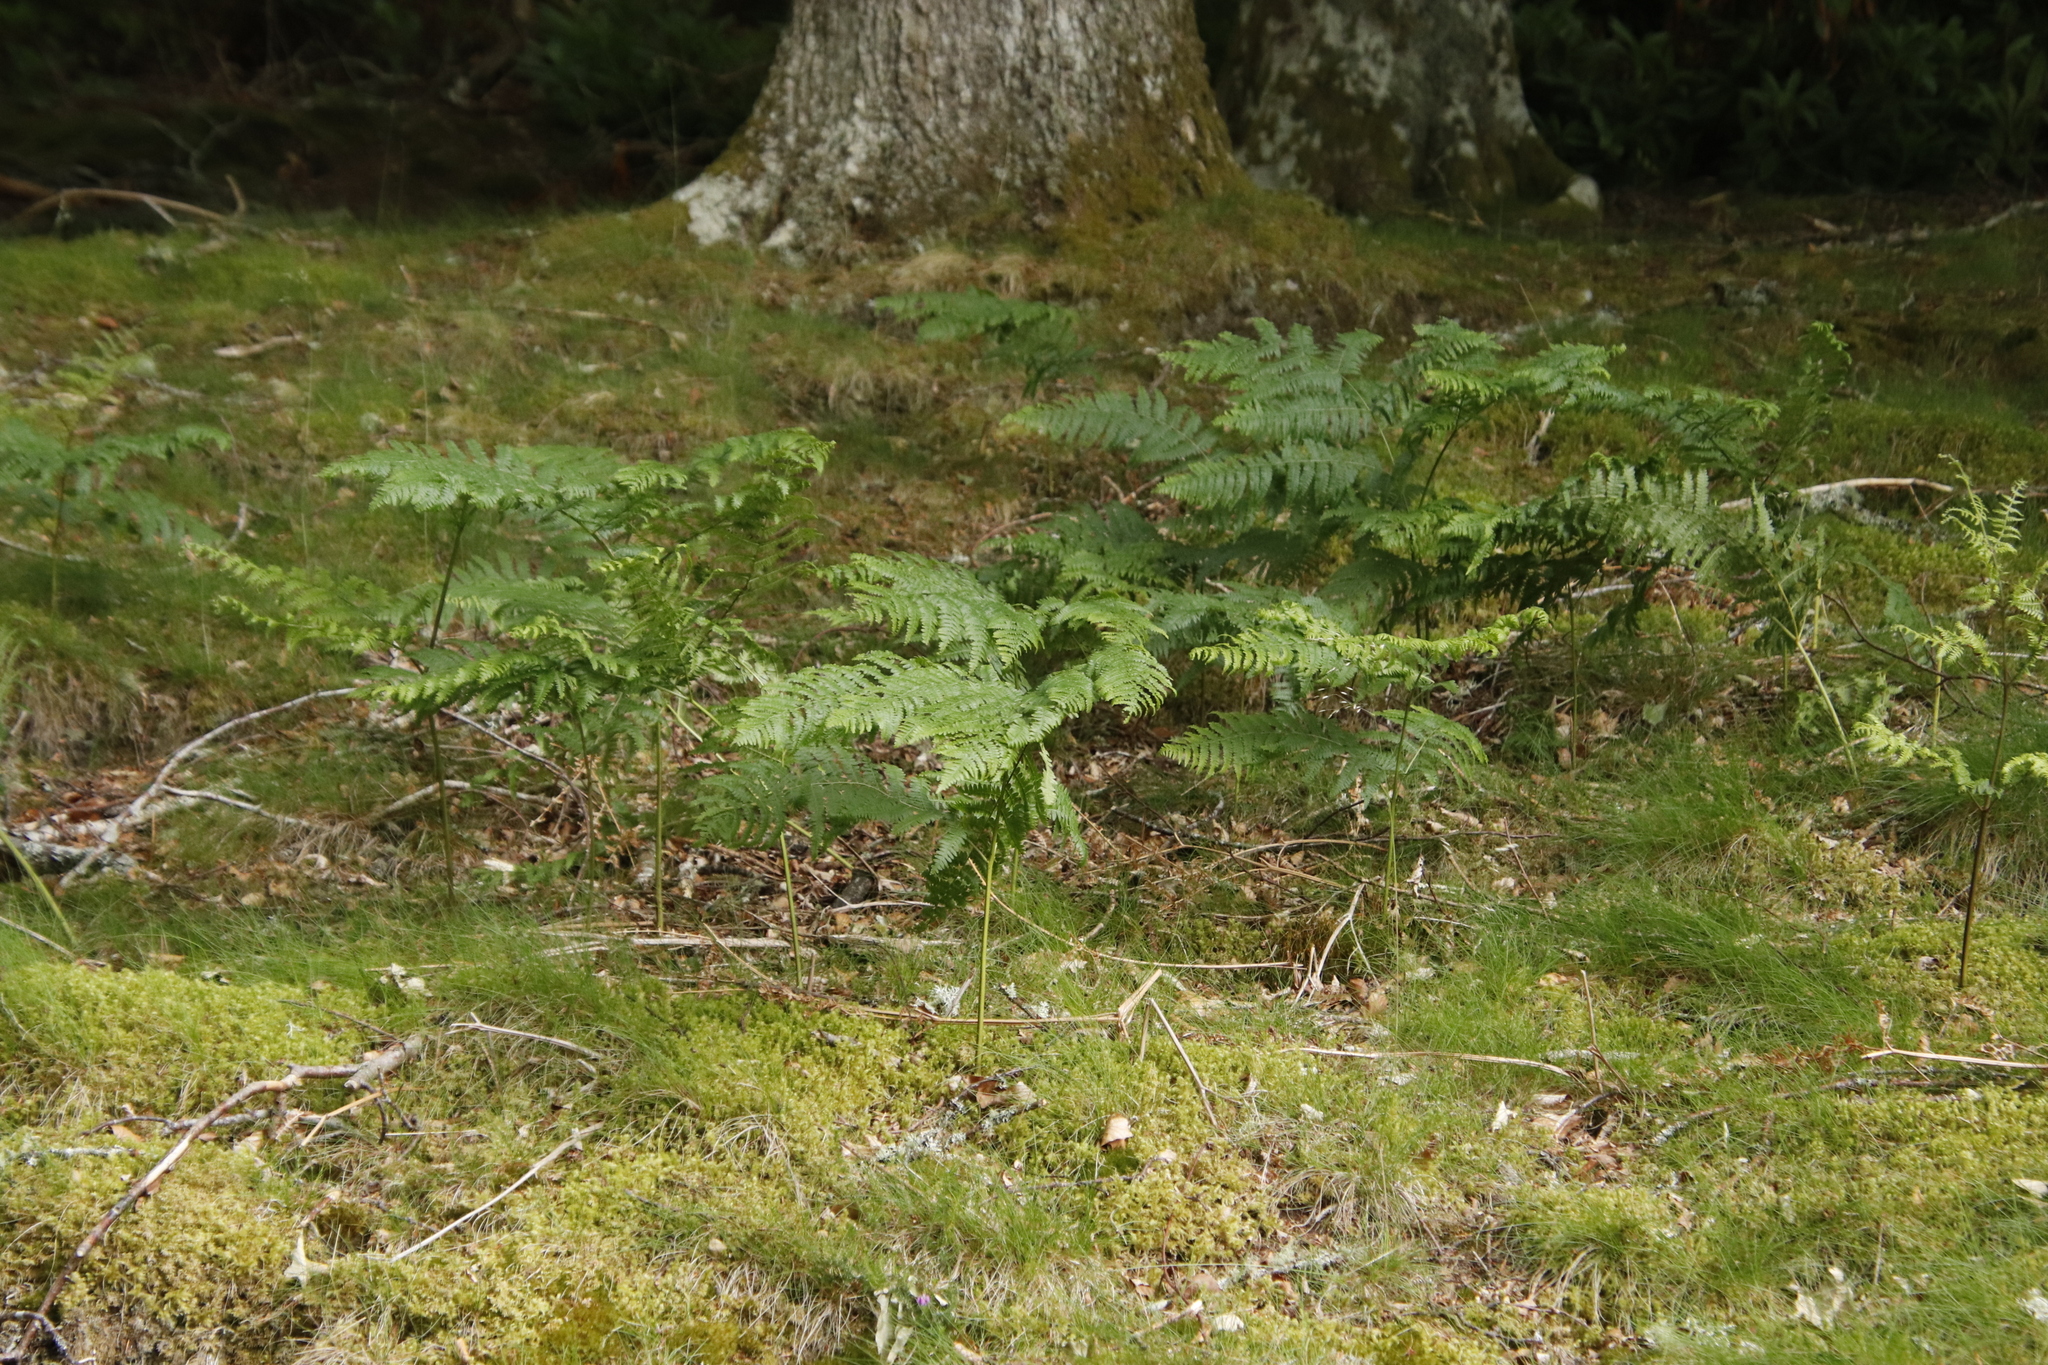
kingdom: Plantae
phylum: Tracheophyta
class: Polypodiopsida
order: Polypodiales
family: Dennstaedtiaceae
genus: Pteridium
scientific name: Pteridium aquilinum
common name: Bracken
